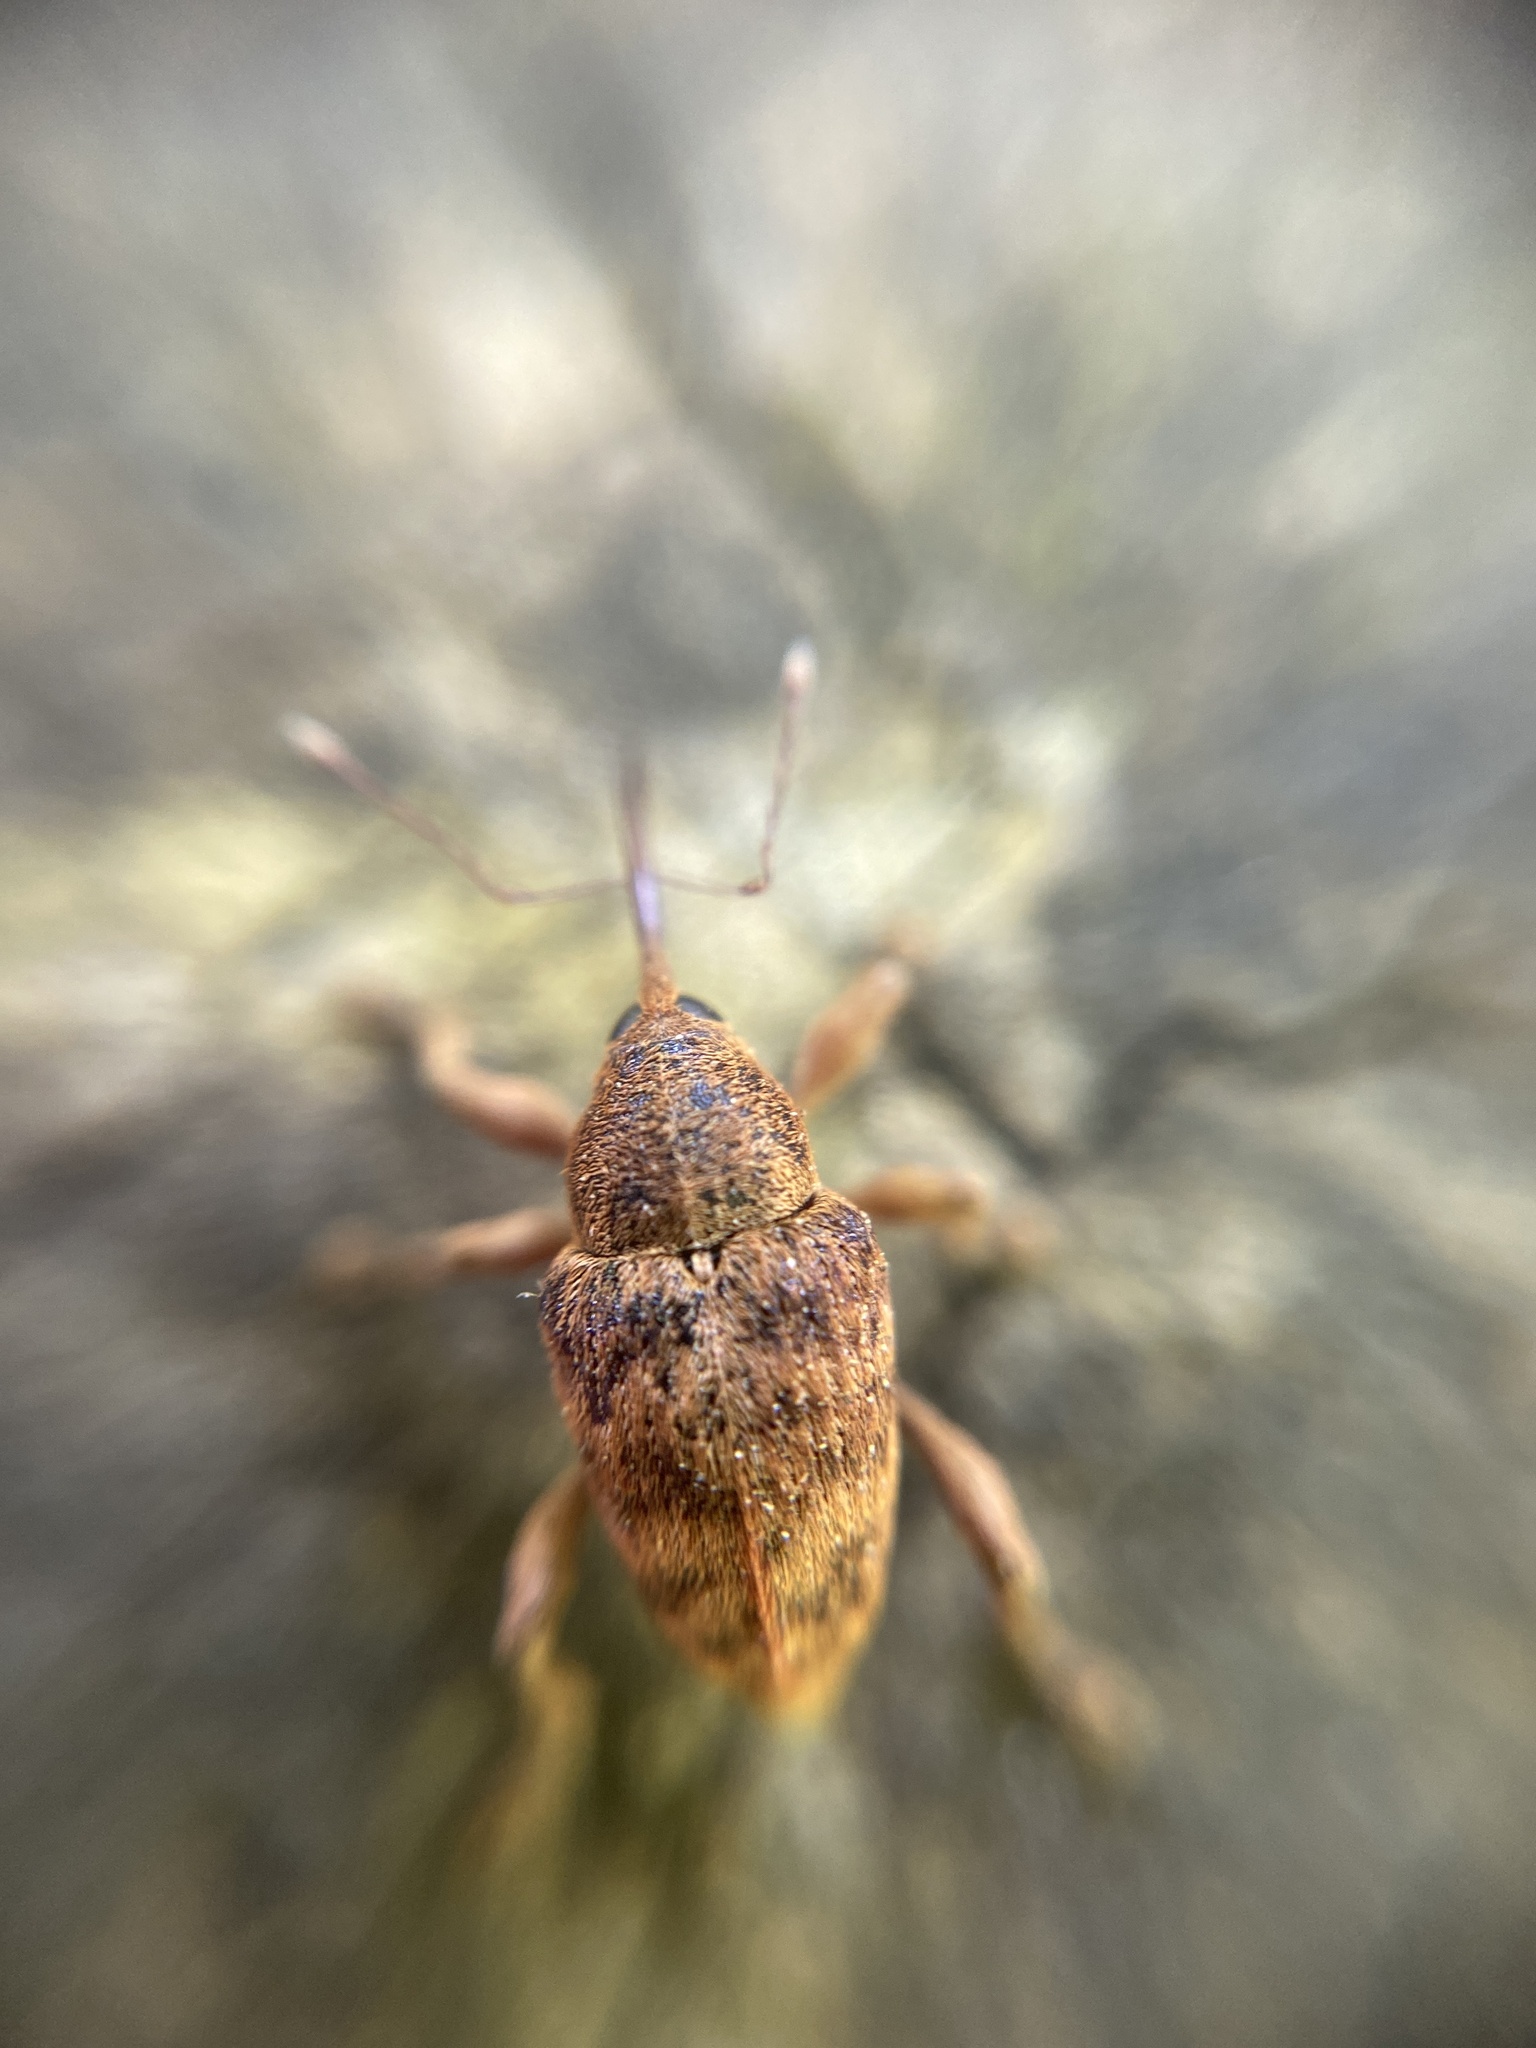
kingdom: Animalia
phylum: Arthropoda
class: Insecta
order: Coleoptera
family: Curculionidae
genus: Curculio
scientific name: Curculio venosus
